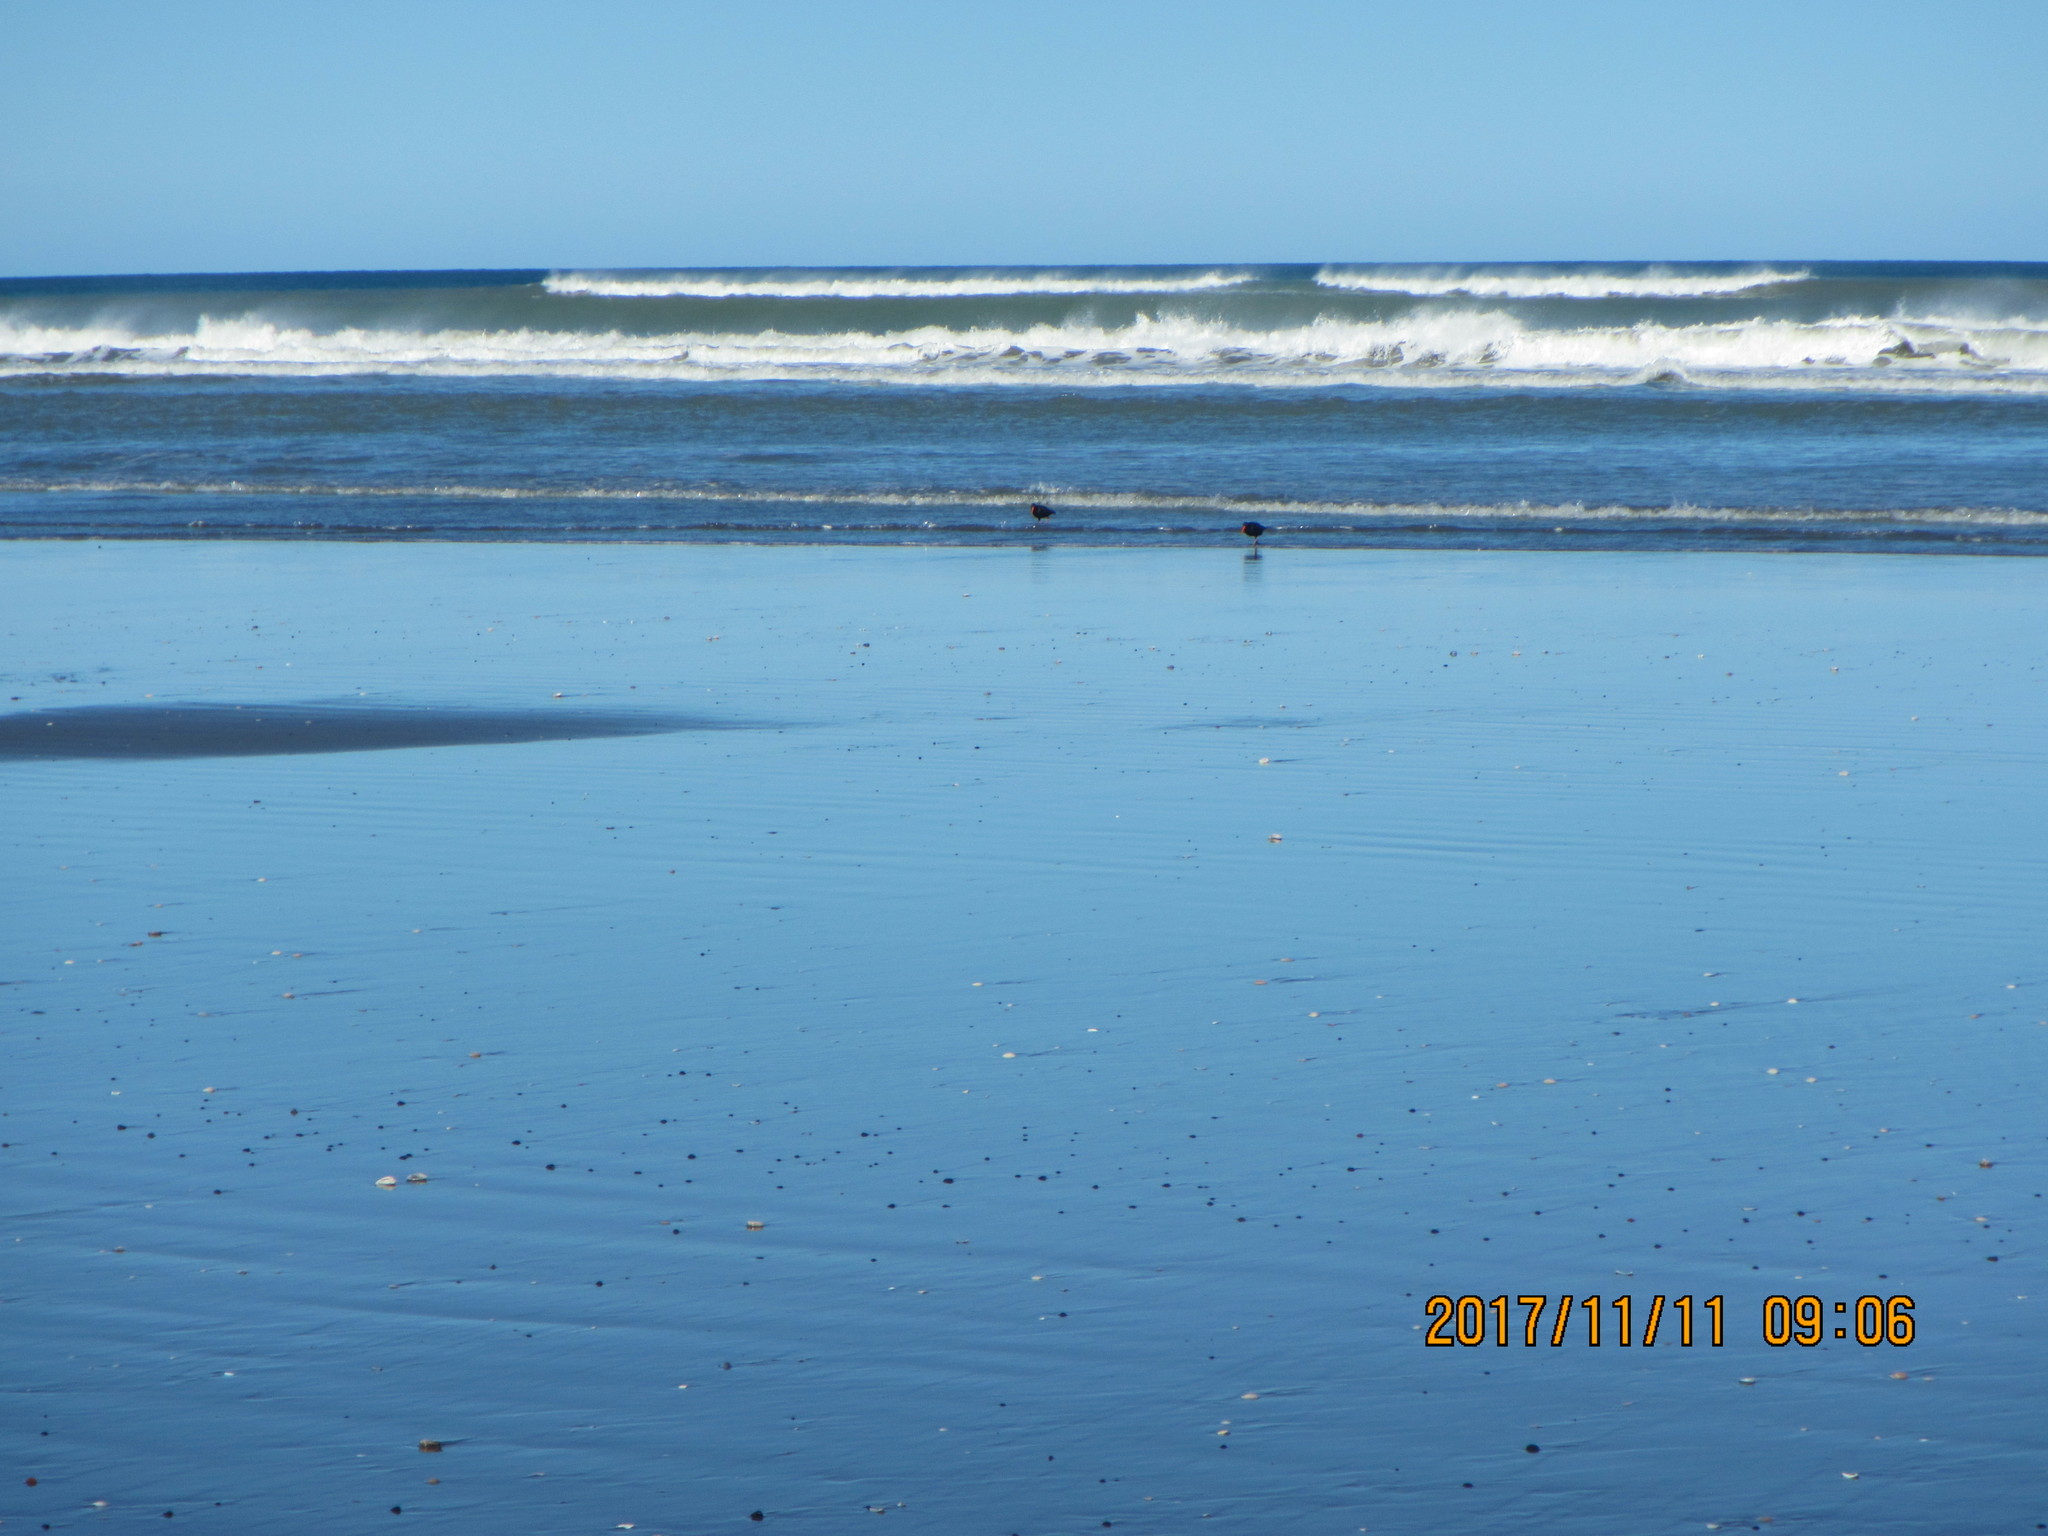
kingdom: Animalia
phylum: Chordata
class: Aves
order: Charadriiformes
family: Haematopodidae
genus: Haematopus
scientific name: Haematopus unicolor
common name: Variable oystercatcher
